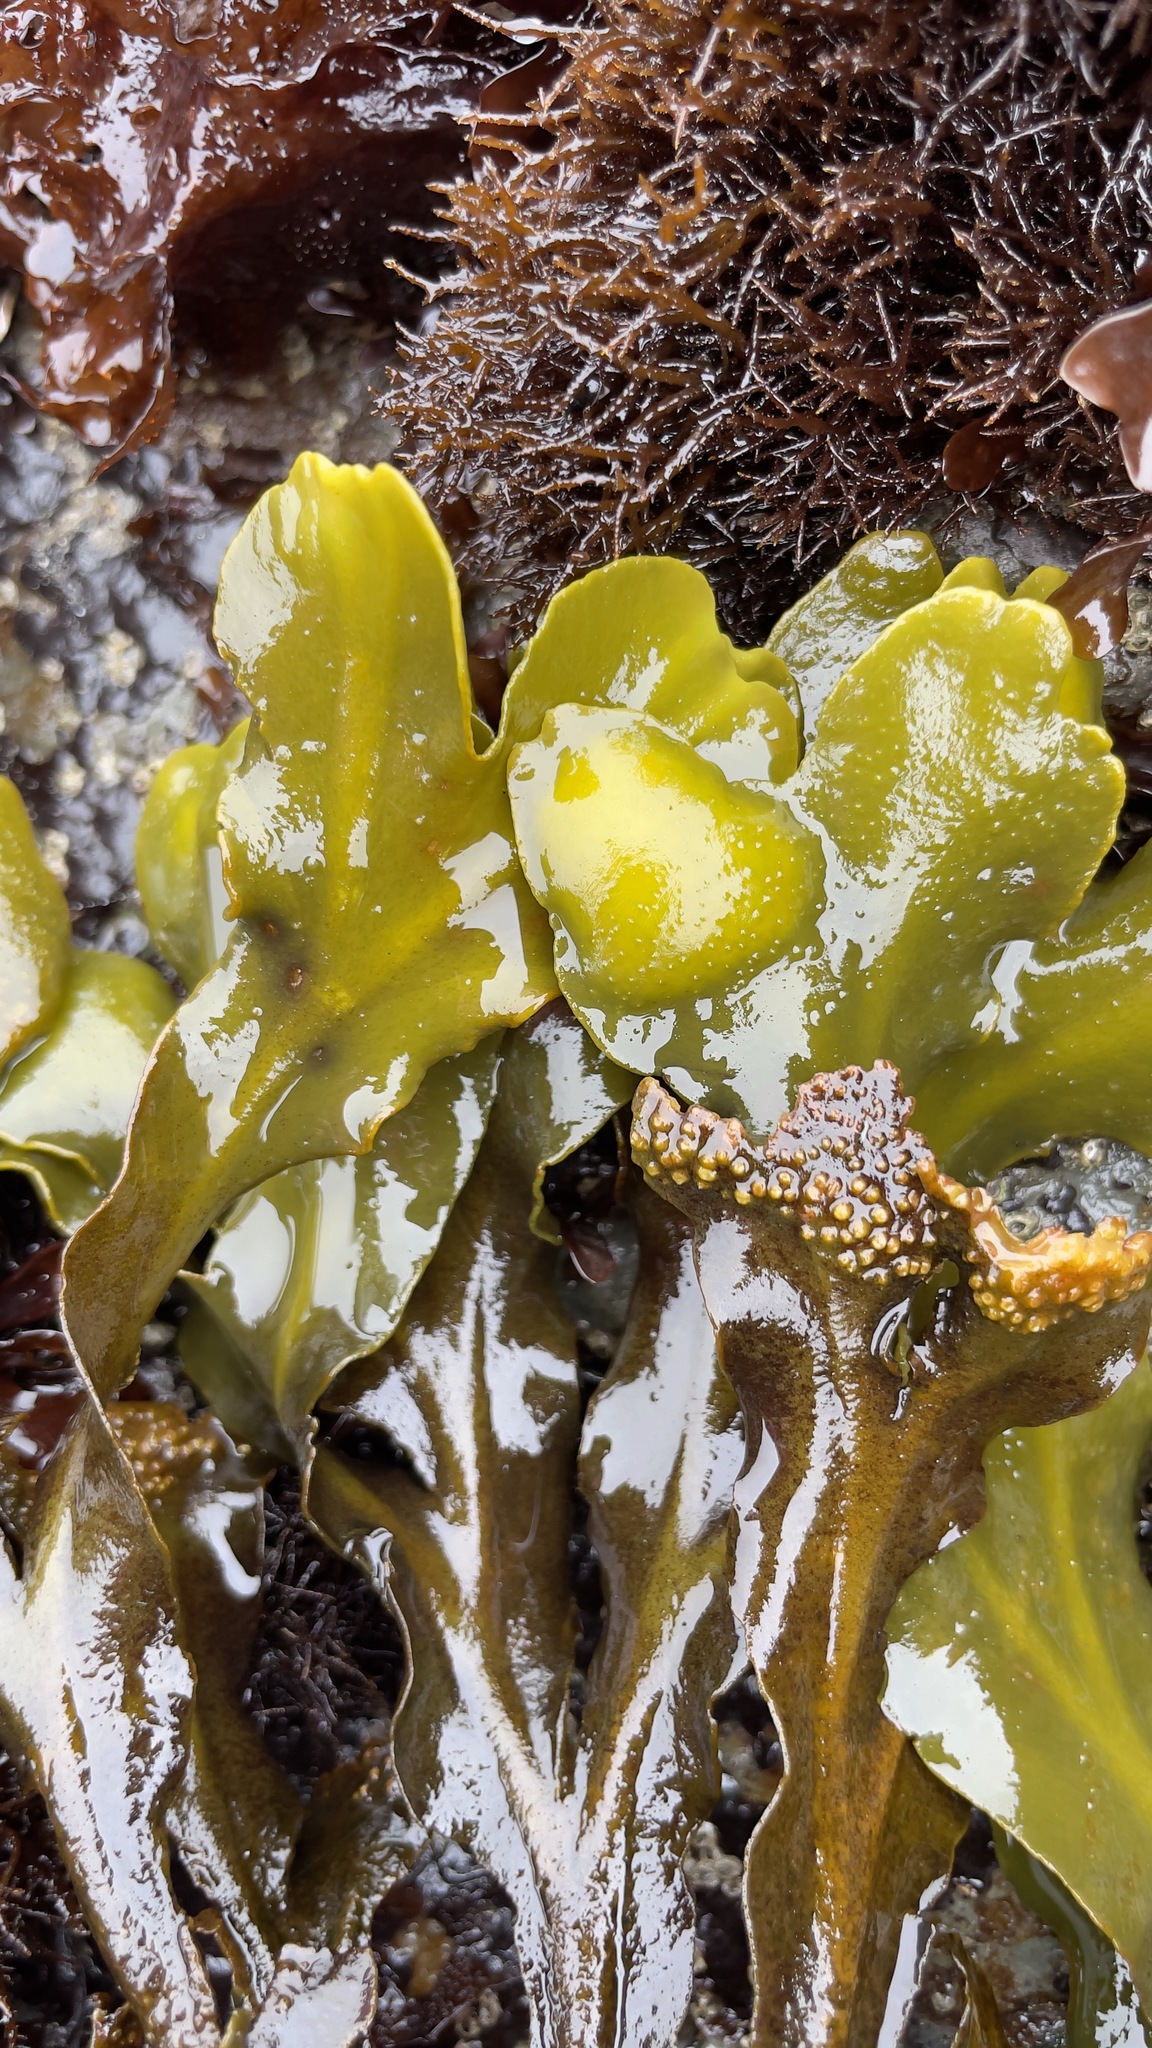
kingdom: Chromista
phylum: Ochrophyta
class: Phaeophyceae
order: Fucales
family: Fucaceae
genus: Fucus
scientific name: Fucus distichus
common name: Rockweed
